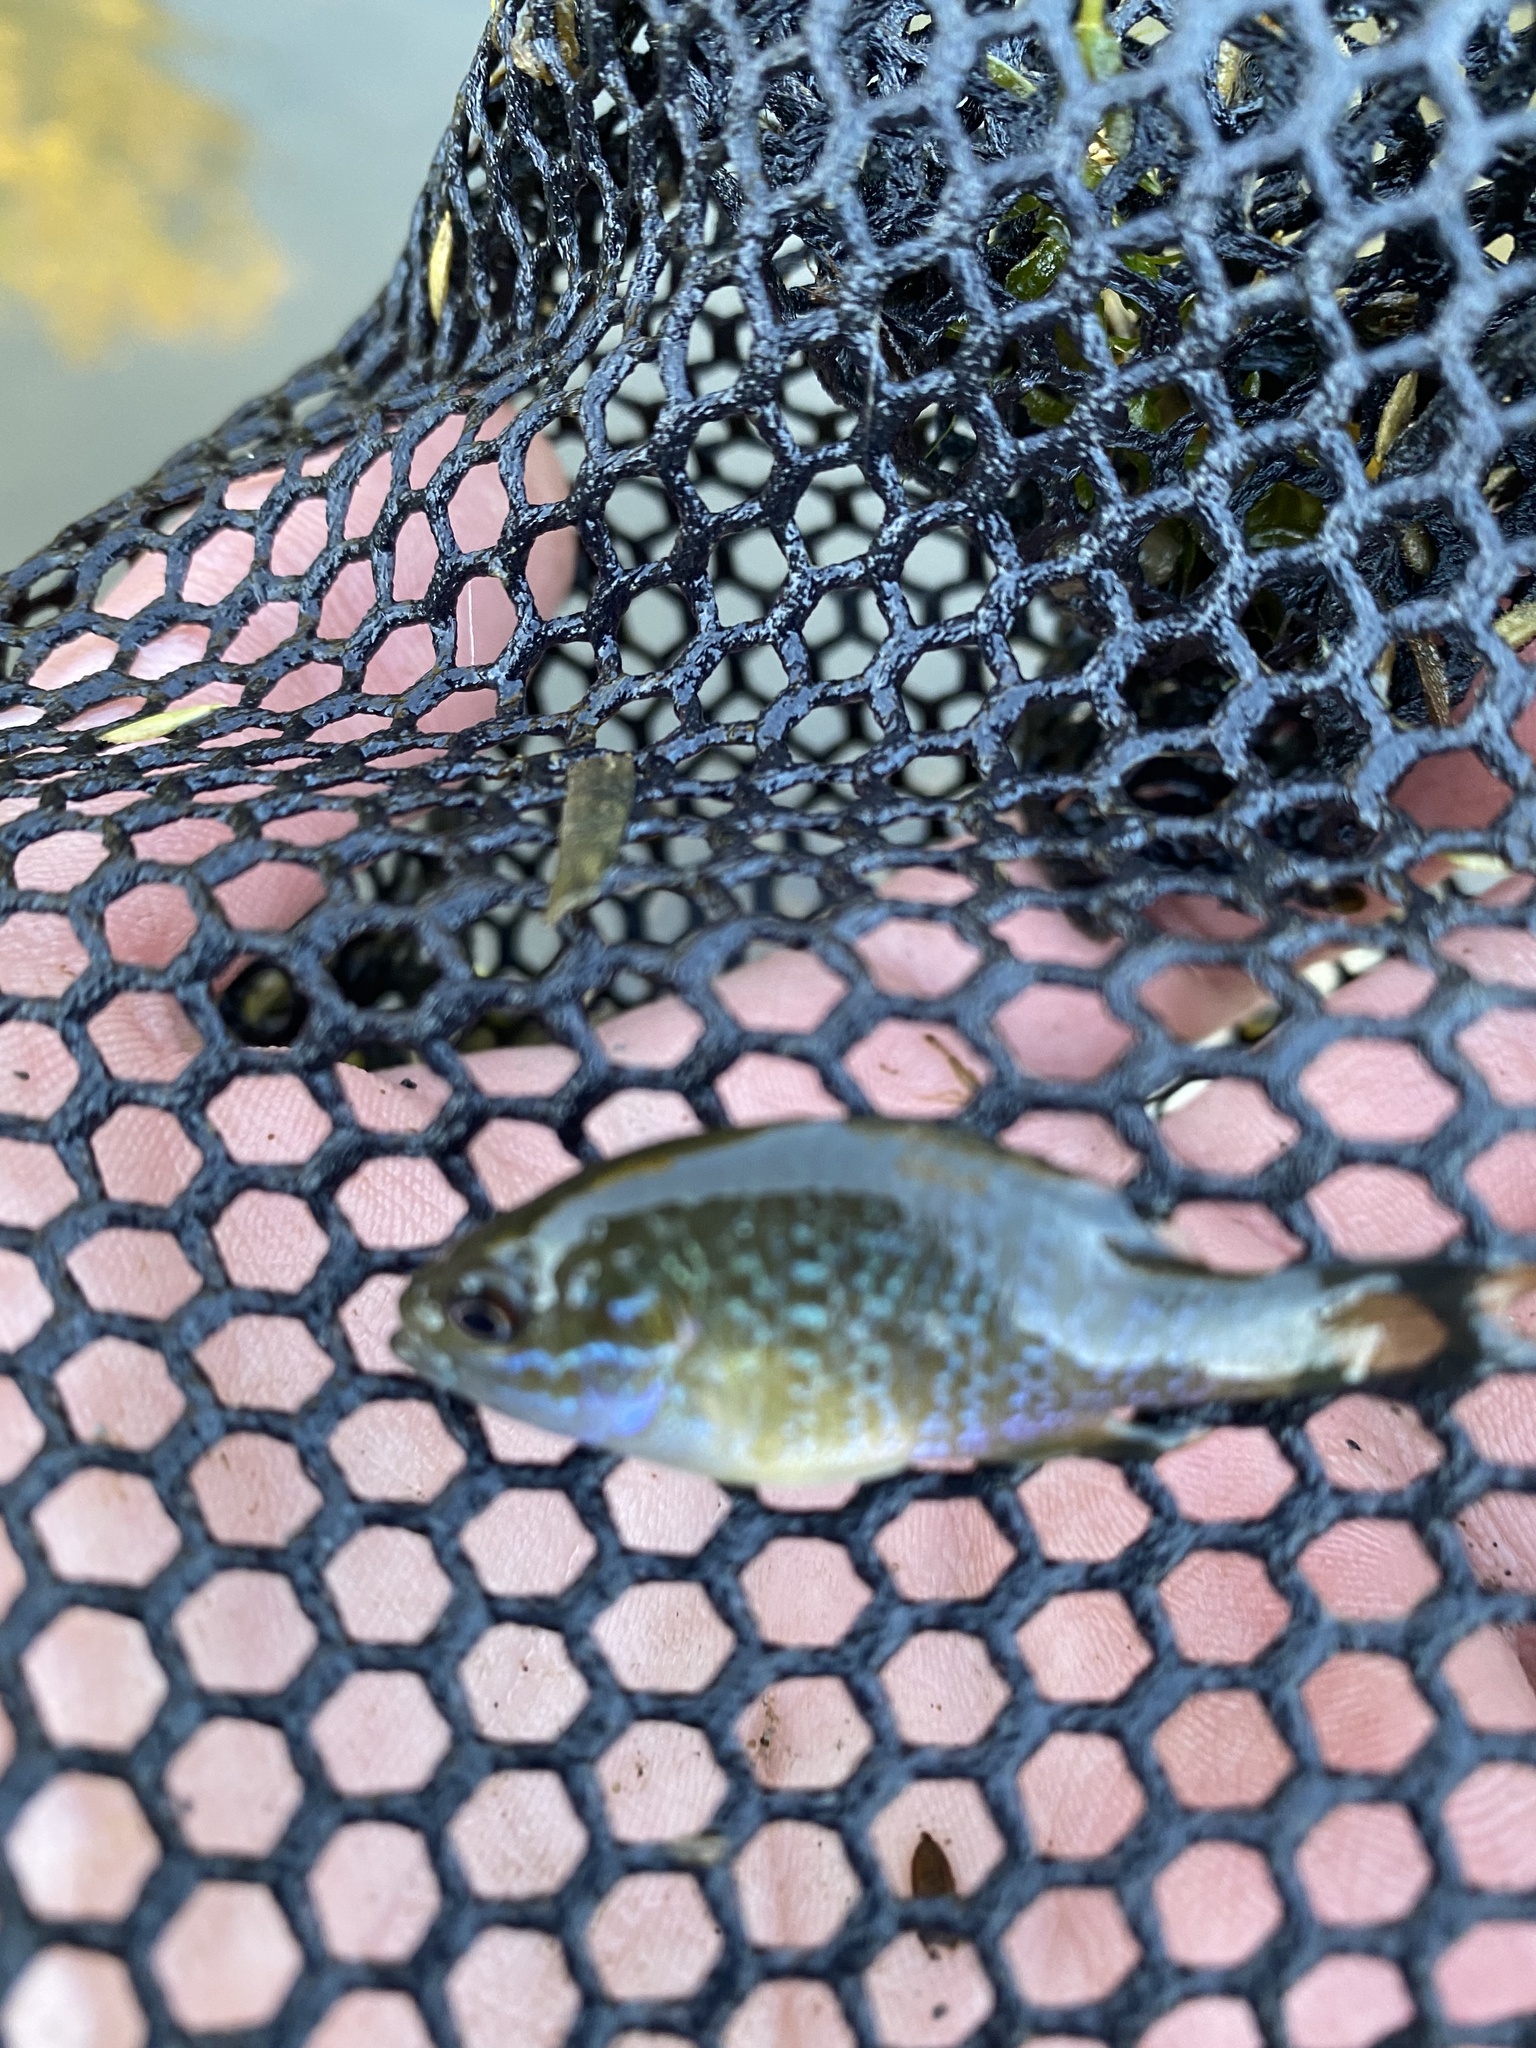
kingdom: Animalia
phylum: Chordata
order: Perciformes
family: Centrarchidae
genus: Lepomis
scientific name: Lepomis cyanellus
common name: Green sunfish
